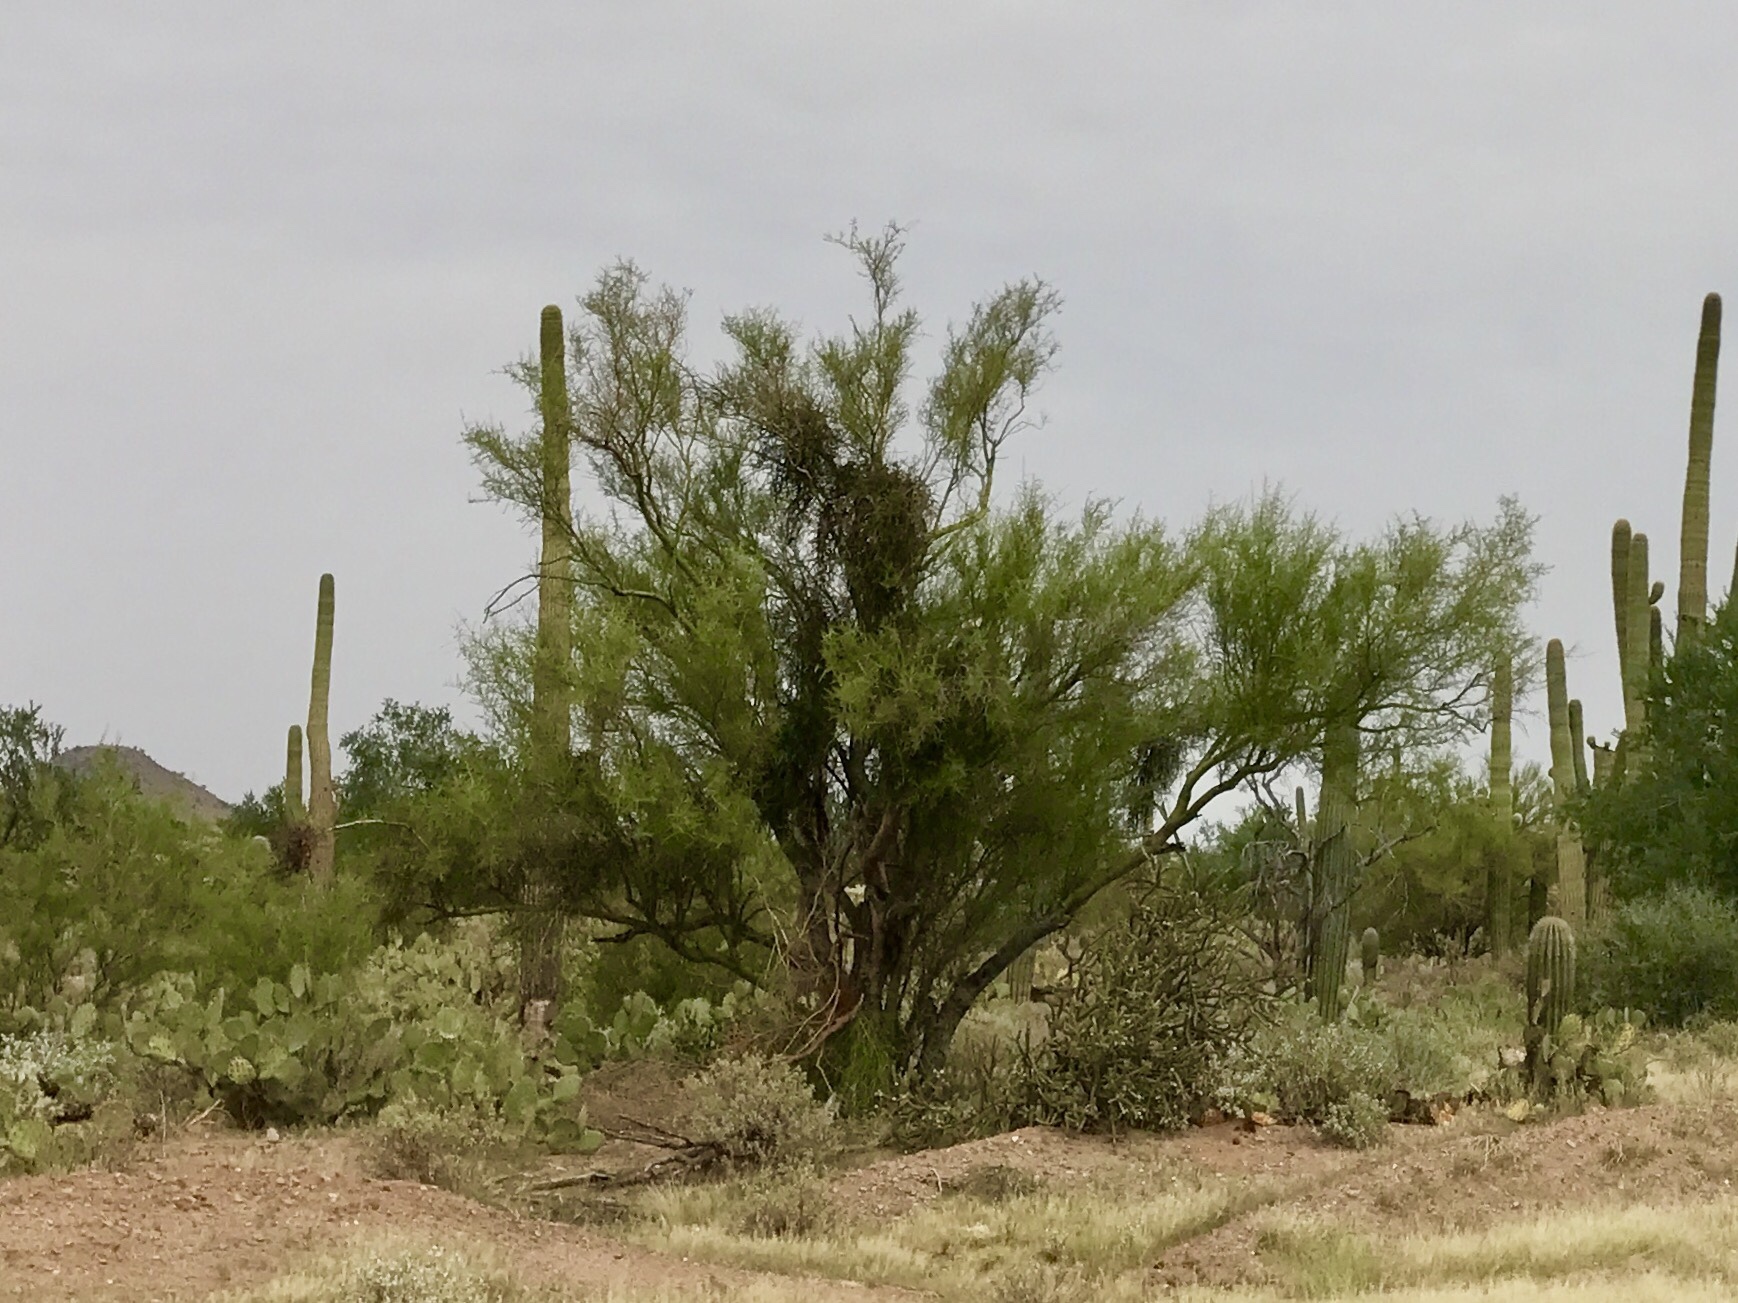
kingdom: Plantae
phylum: Tracheophyta
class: Magnoliopsida
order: Fabales
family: Fabaceae
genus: Parkinsonia
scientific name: Parkinsonia microphylla
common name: Yellow paloverde
